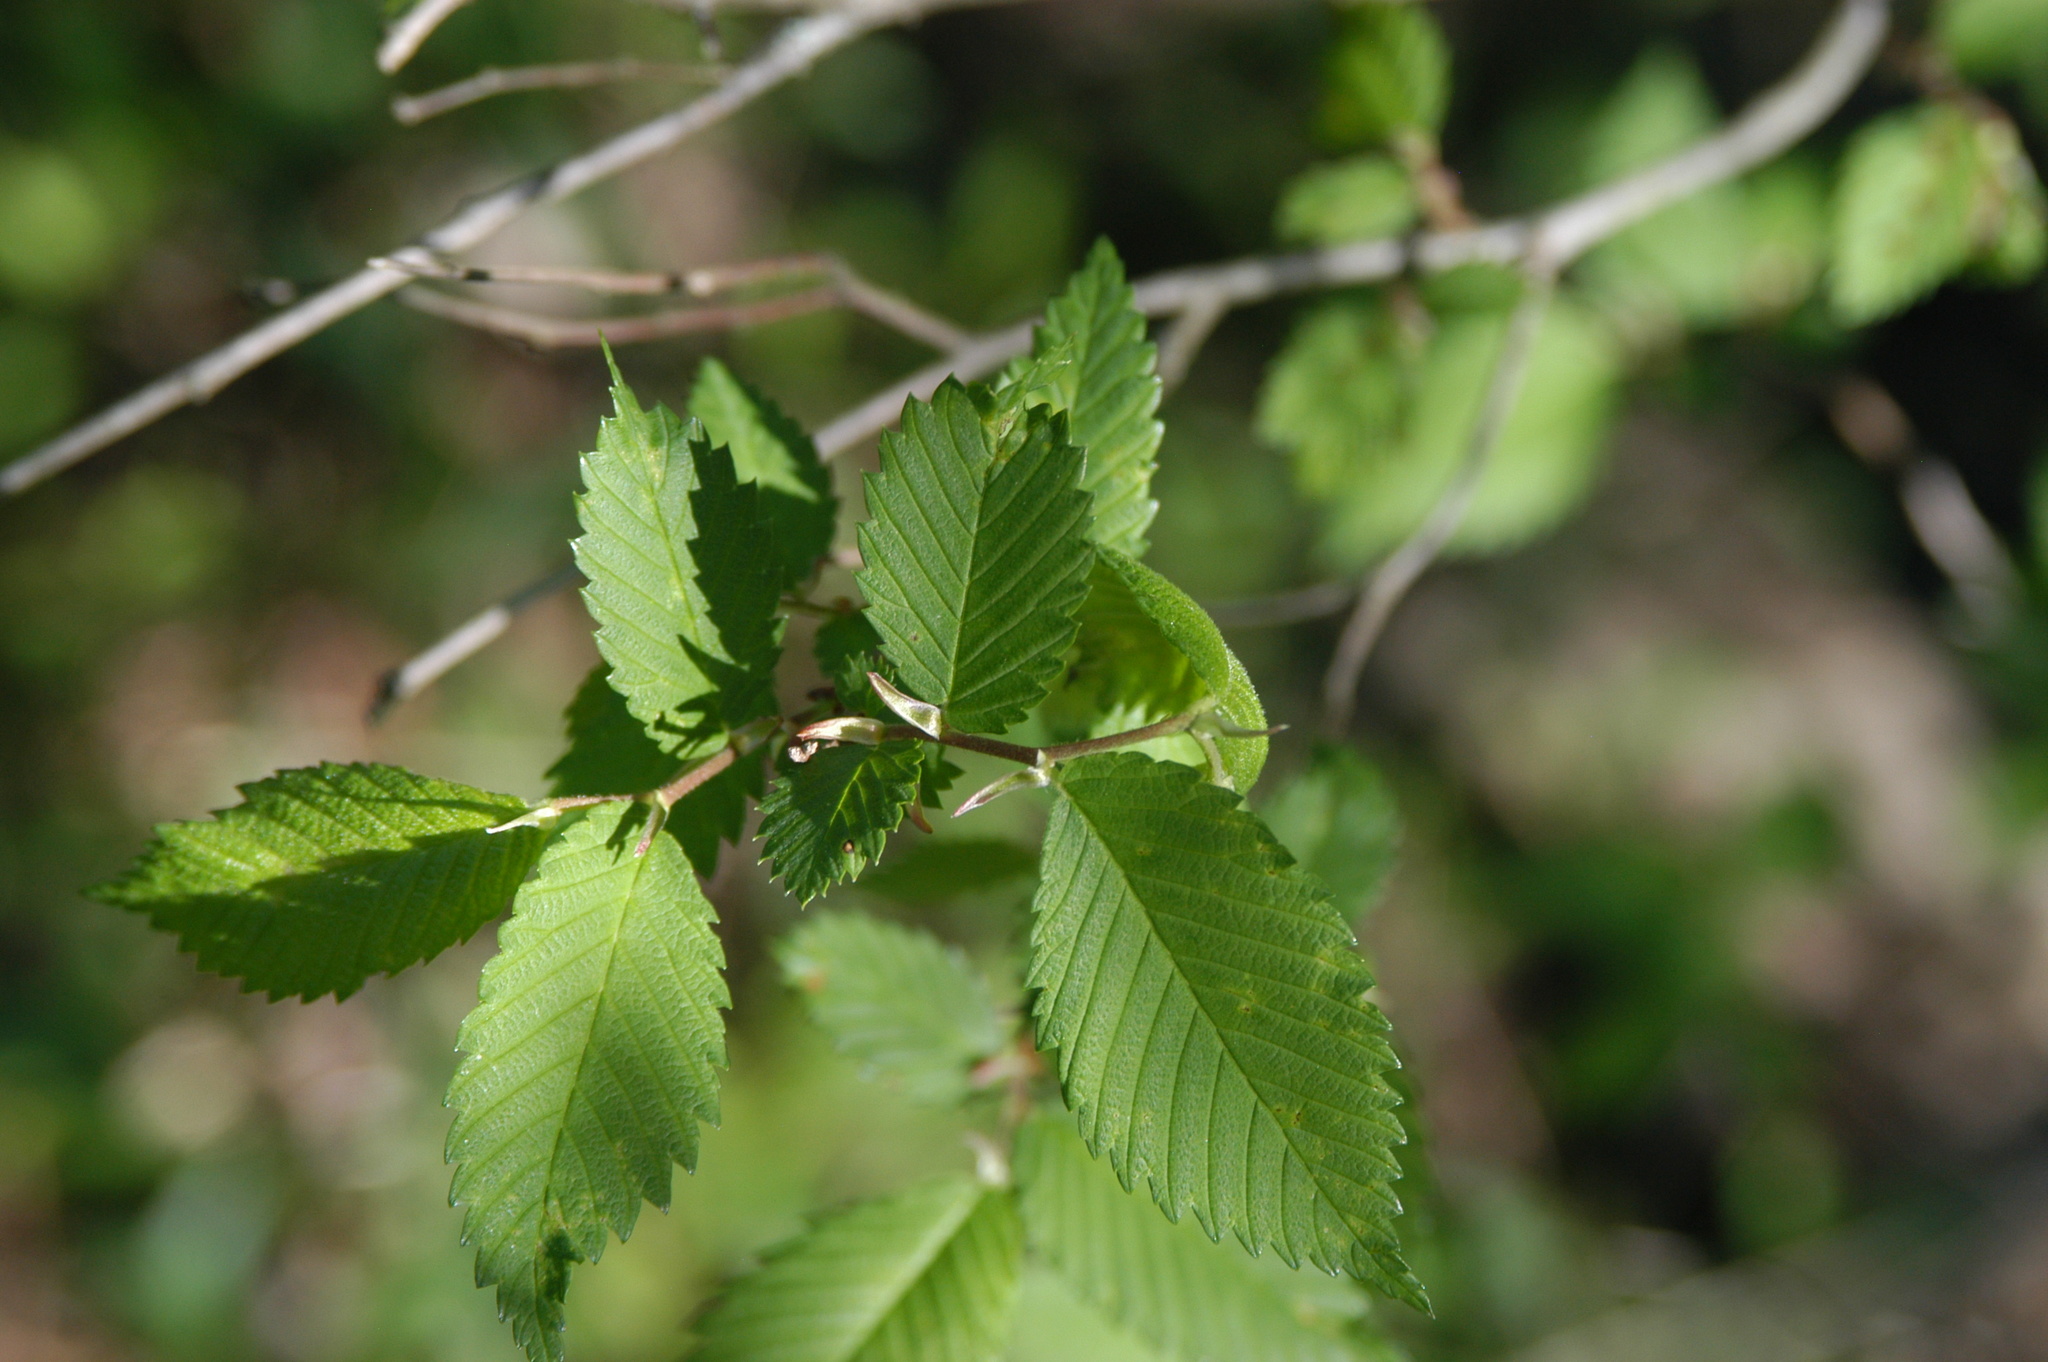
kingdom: Plantae
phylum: Tracheophyta
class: Magnoliopsida
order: Rosales
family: Ulmaceae
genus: Ulmus
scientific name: Ulmus pumila
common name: Siberian elm
